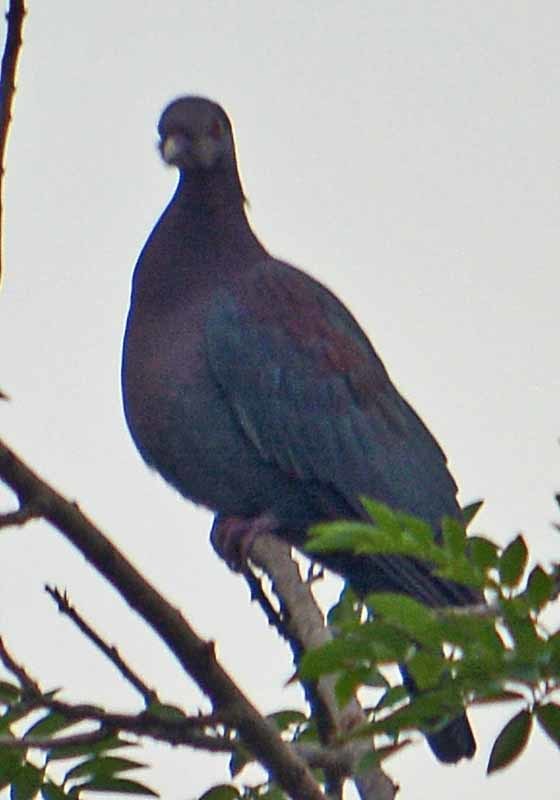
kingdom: Animalia
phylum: Chordata
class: Aves
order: Columbiformes
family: Columbidae
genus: Patagioenas
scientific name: Patagioenas flavirostris
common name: Red-billed pigeon
